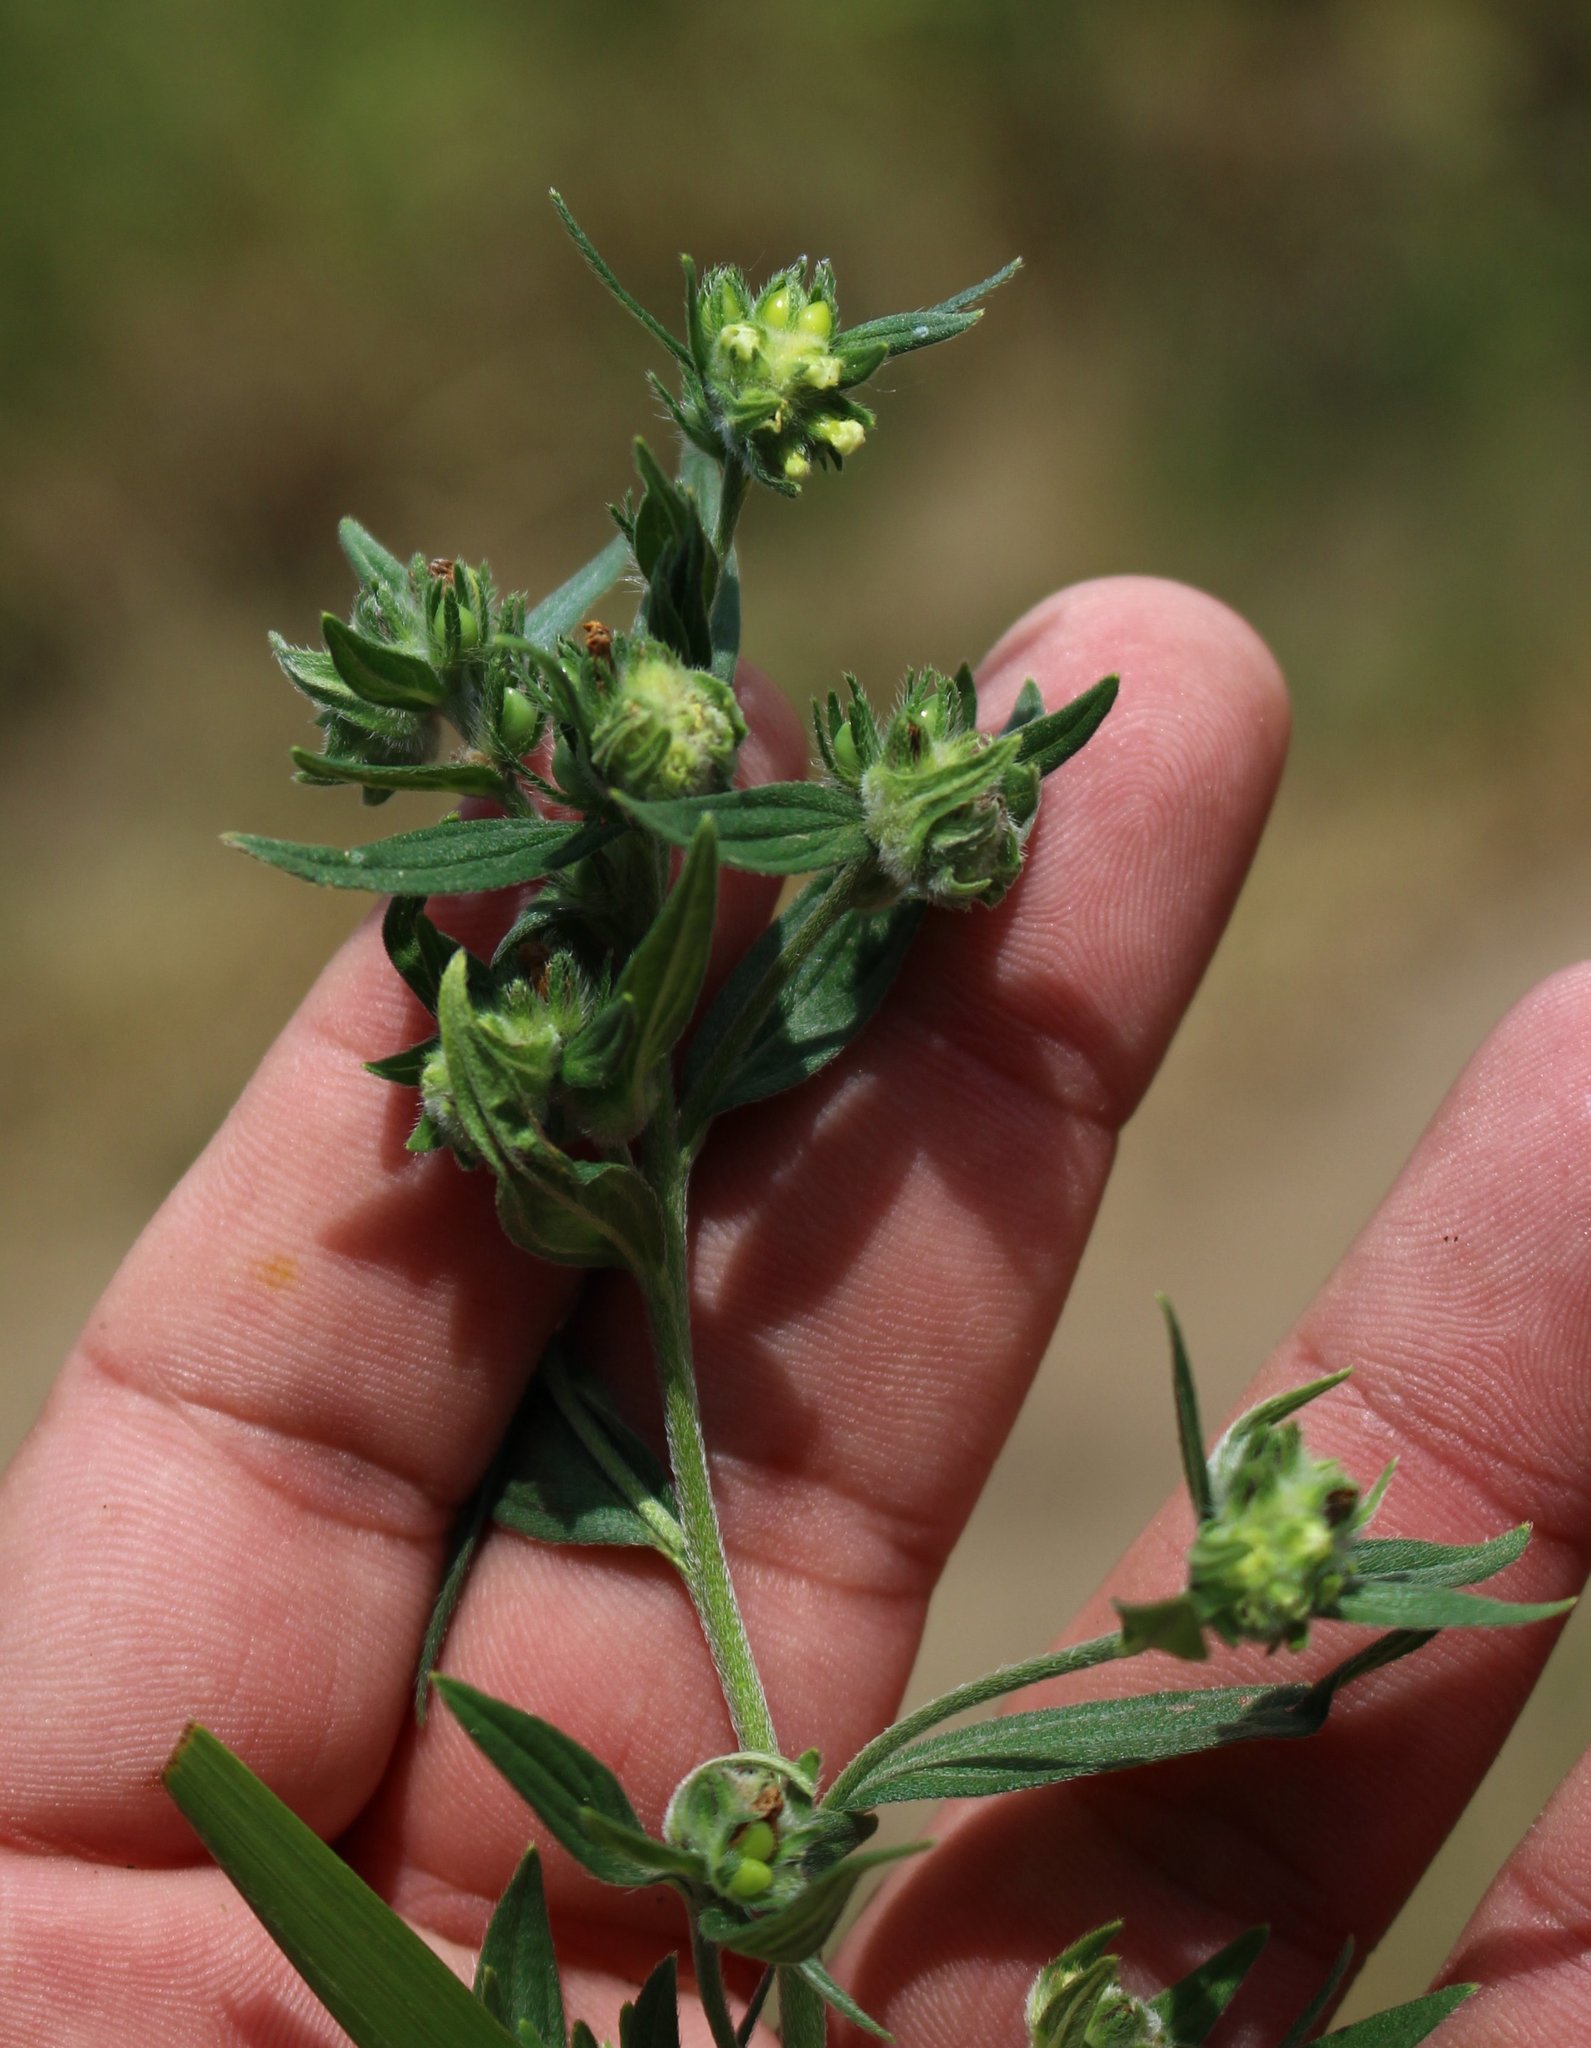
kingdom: Plantae
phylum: Tracheophyta
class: Magnoliopsida
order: Boraginales
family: Boraginaceae
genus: Lithospermum
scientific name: Lithospermum officinale
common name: Common gromwell
